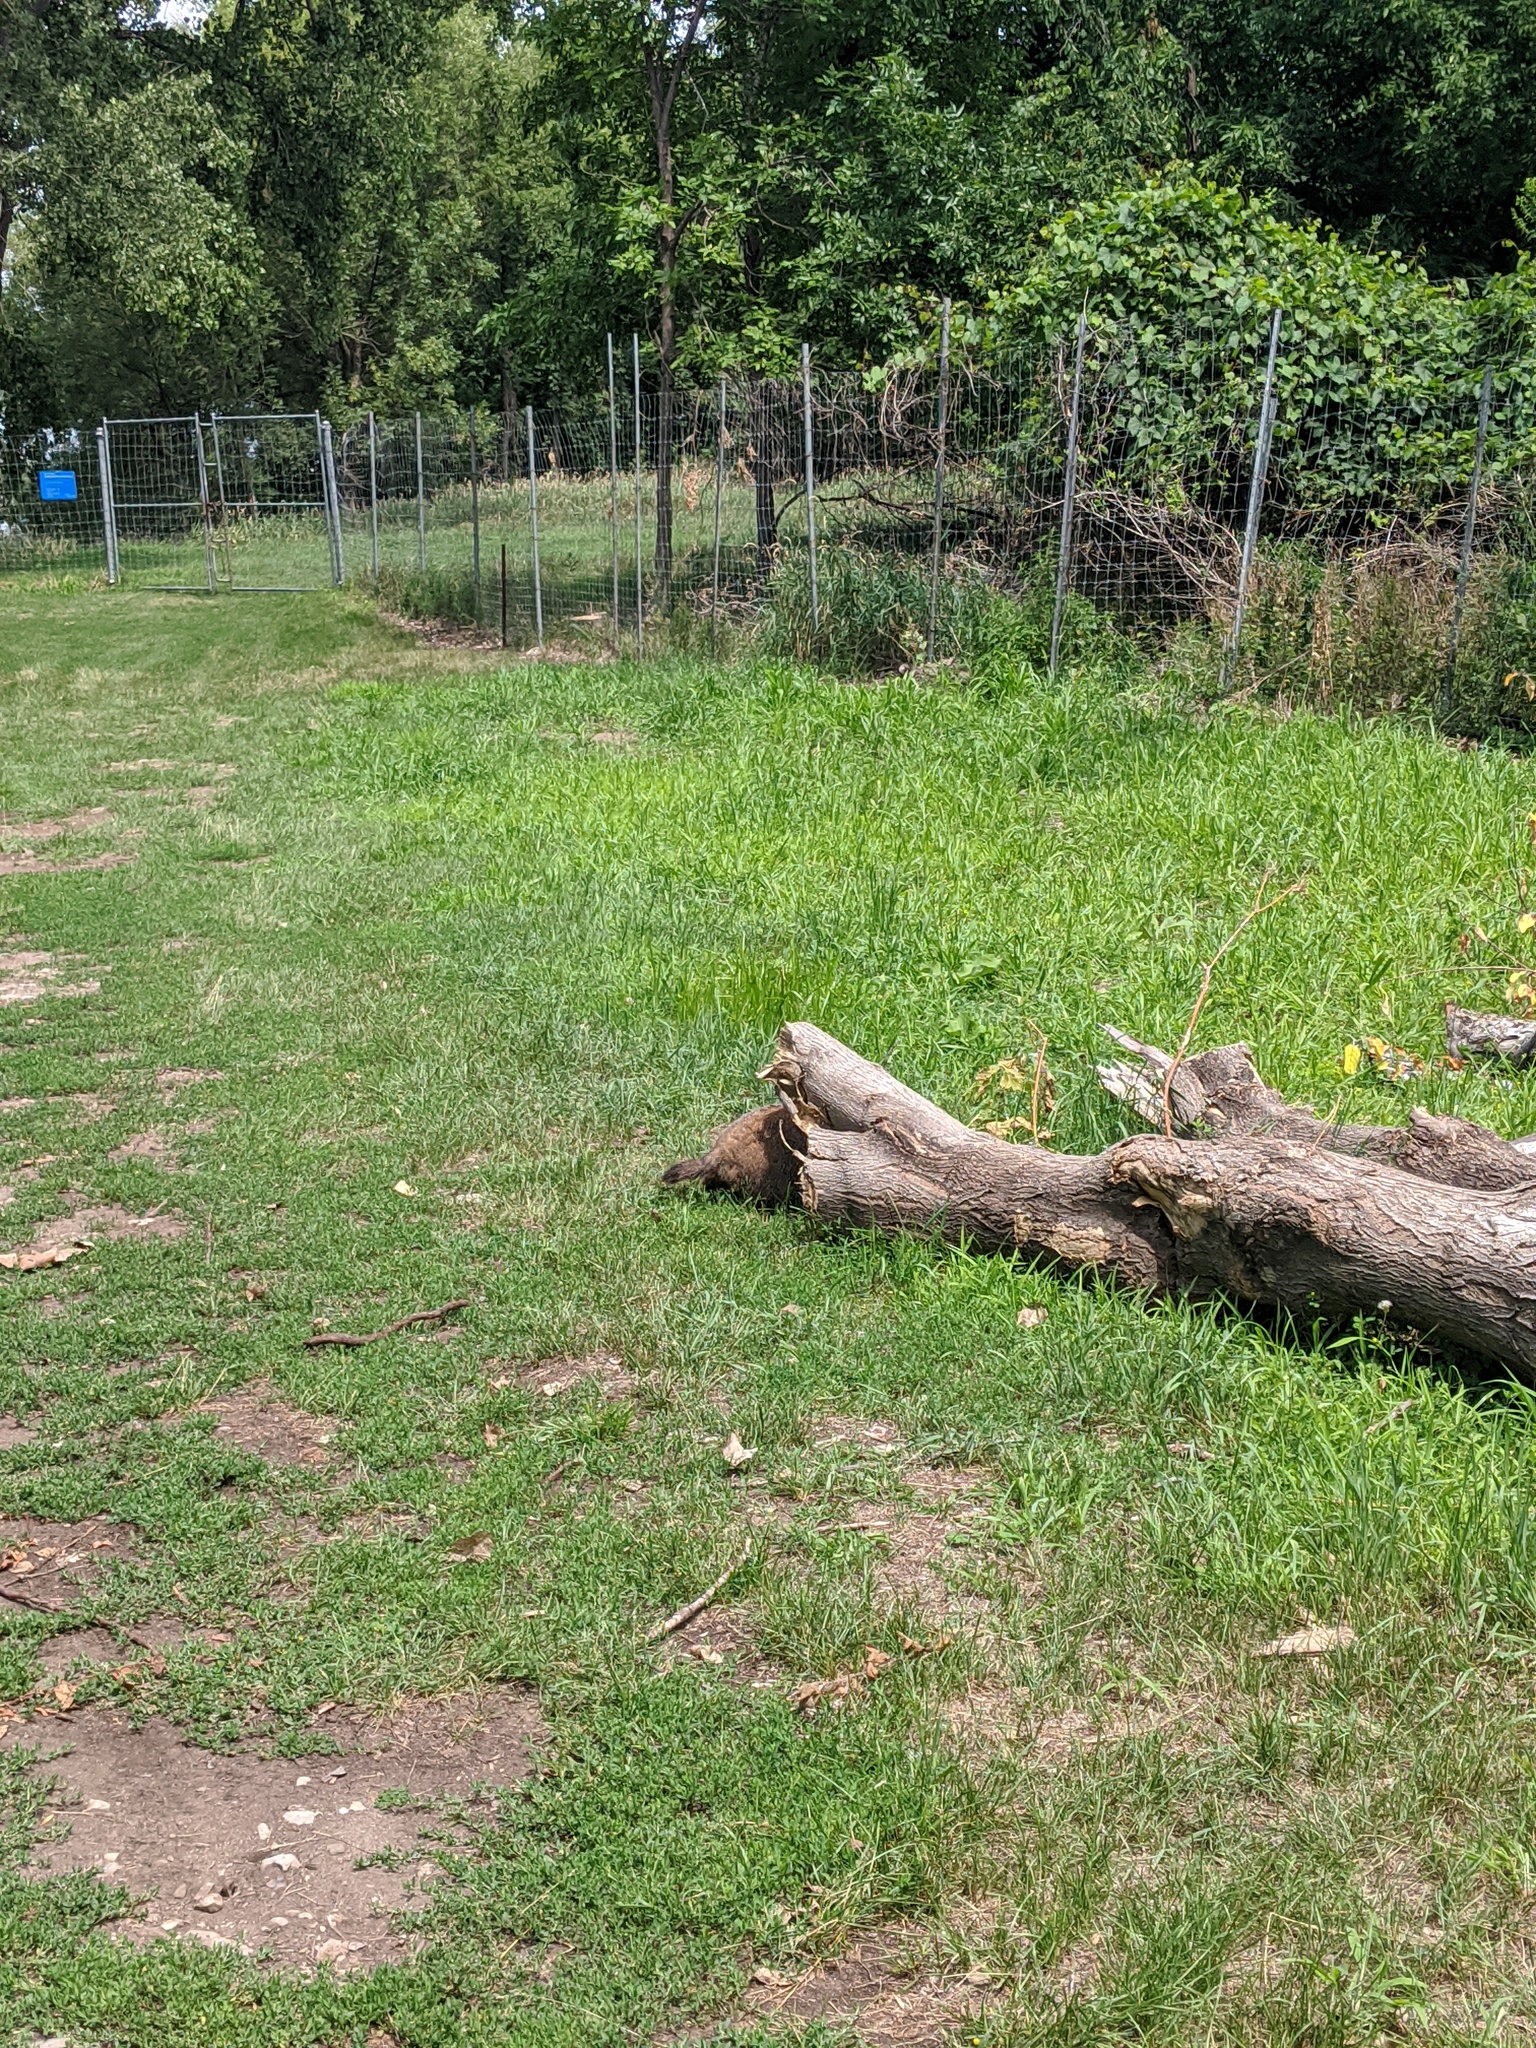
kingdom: Animalia
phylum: Chordata
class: Mammalia
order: Rodentia
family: Sciuridae
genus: Marmota
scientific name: Marmota monax
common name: Groundhog
